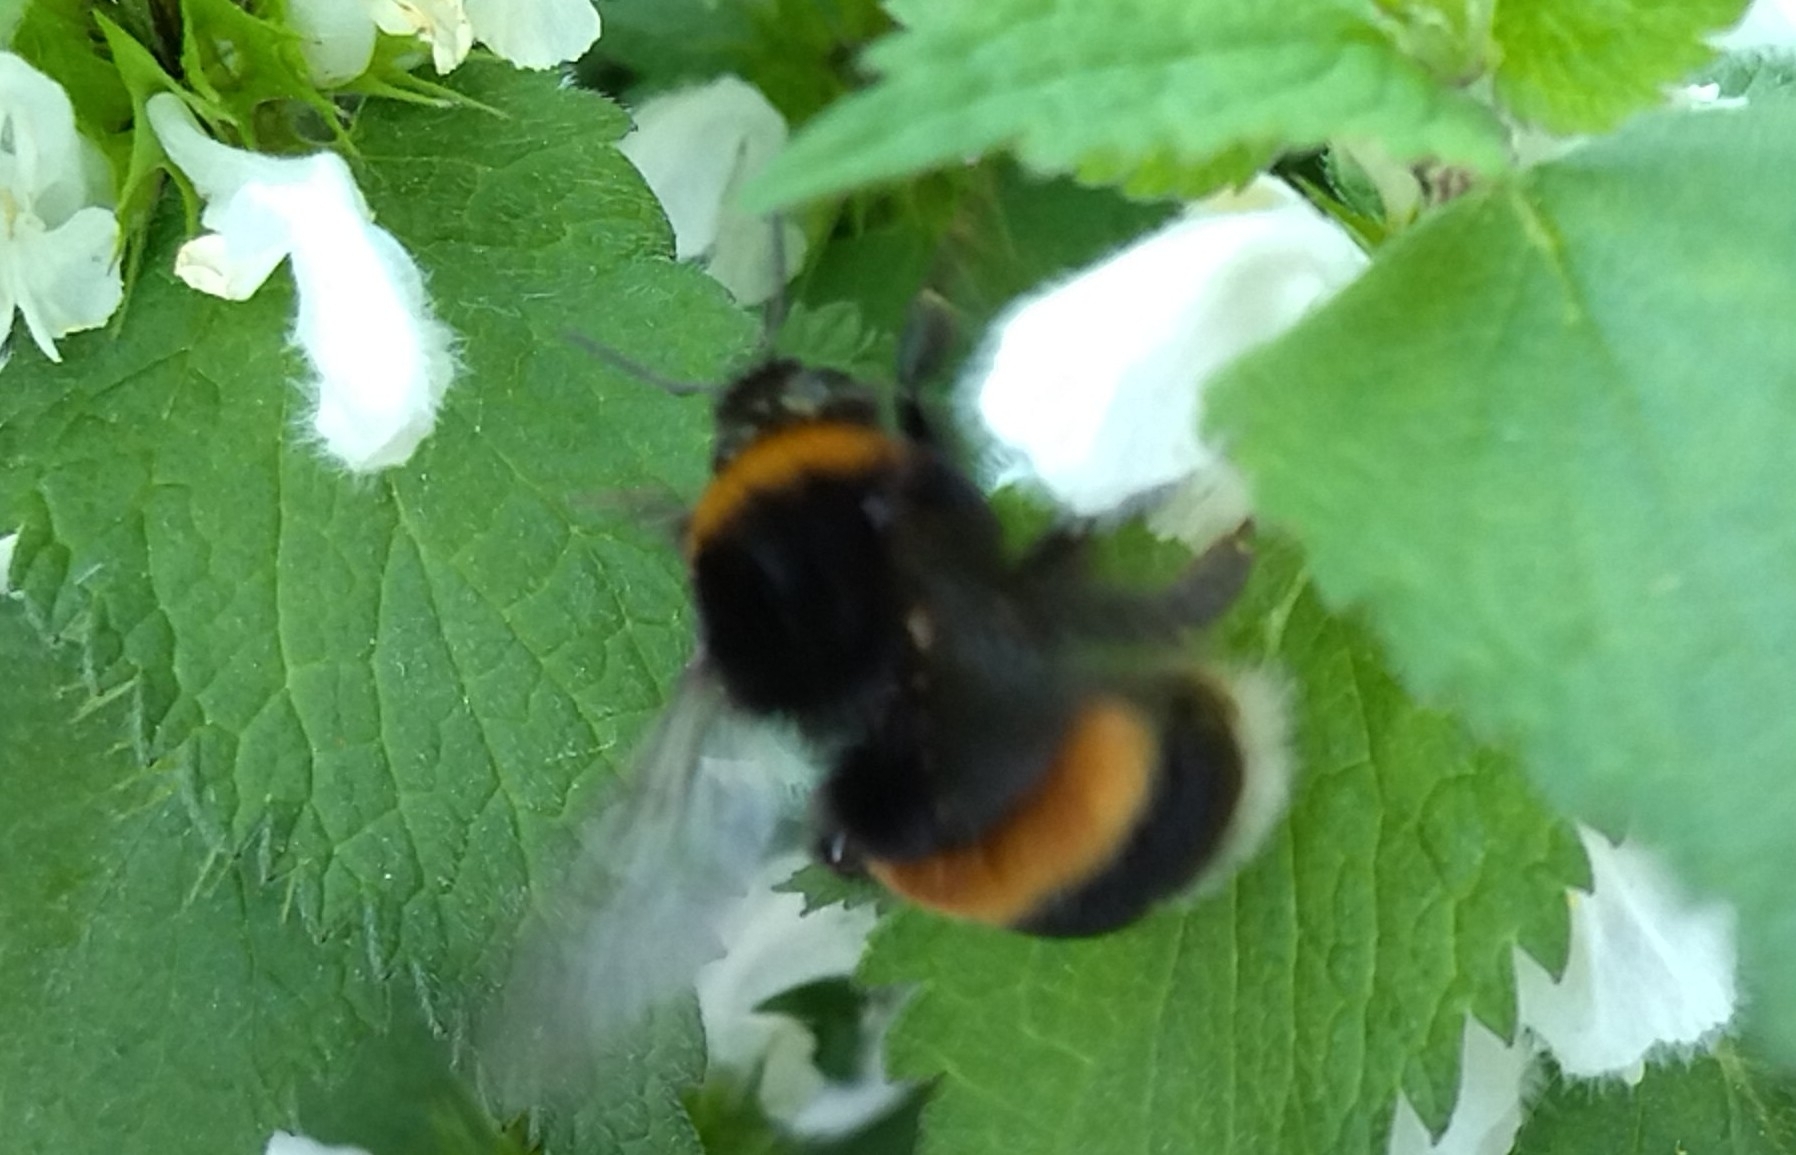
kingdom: Animalia
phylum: Arthropoda
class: Insecta
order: Hymenoptera
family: Apidae
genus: Bombus
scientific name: Bombus
